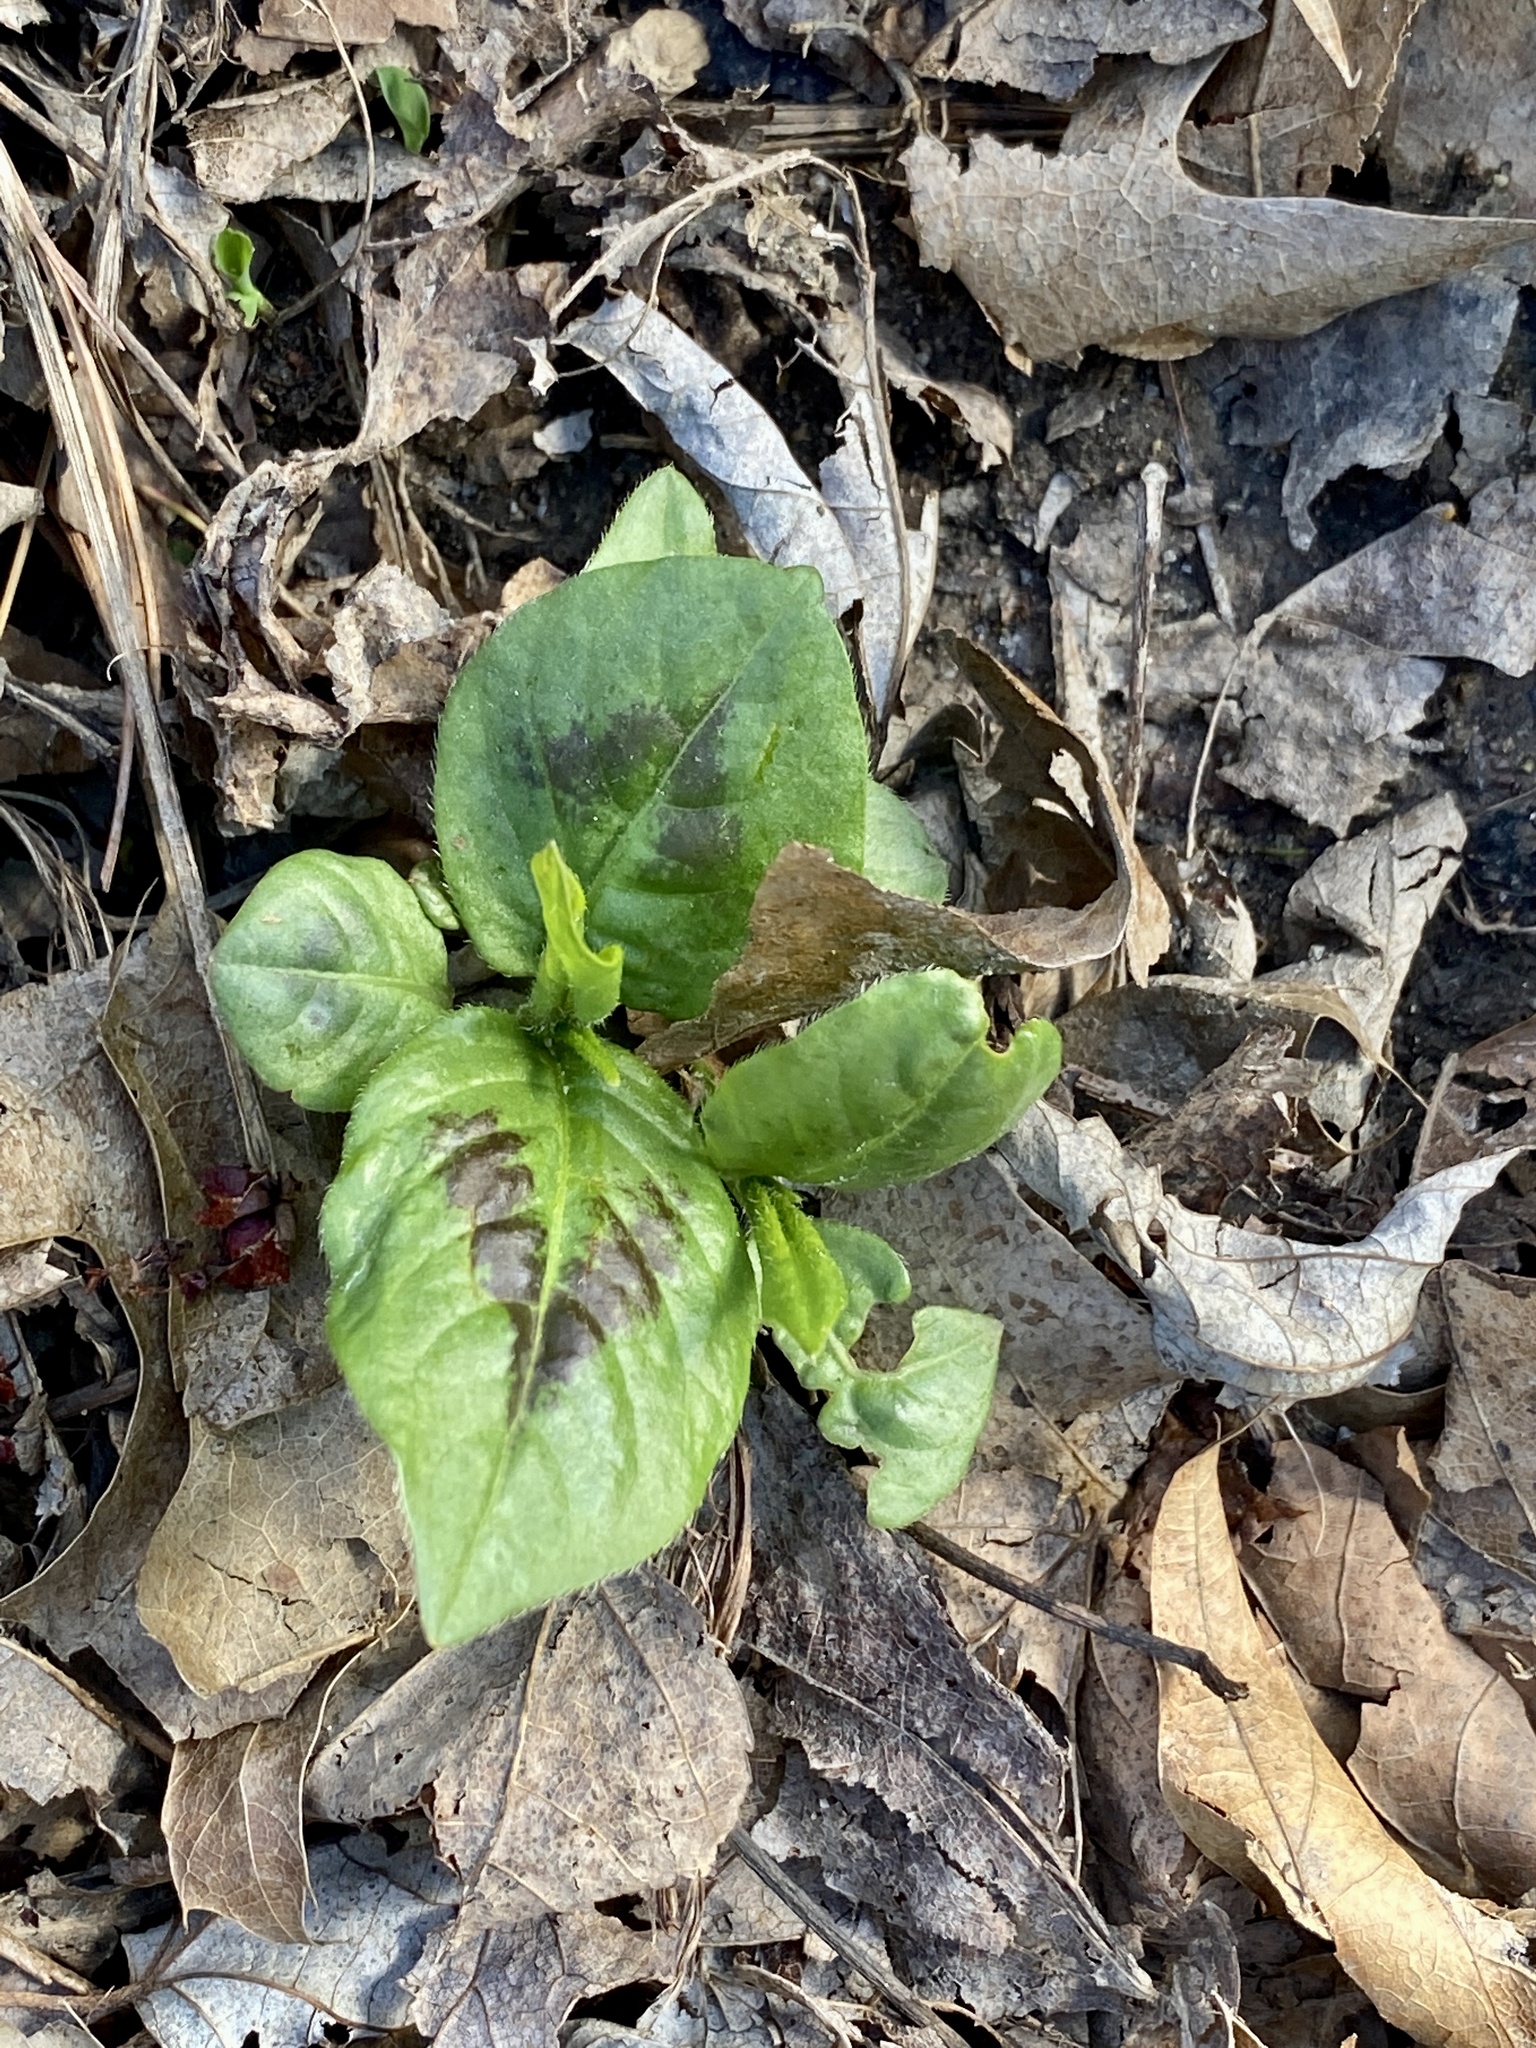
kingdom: Plantae
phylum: Tracheophyta
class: Magnoliopsida
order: Caryophyllales
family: Polygonaceae
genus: Persicaria
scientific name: Persicaria virginiana
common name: Jumpseed
